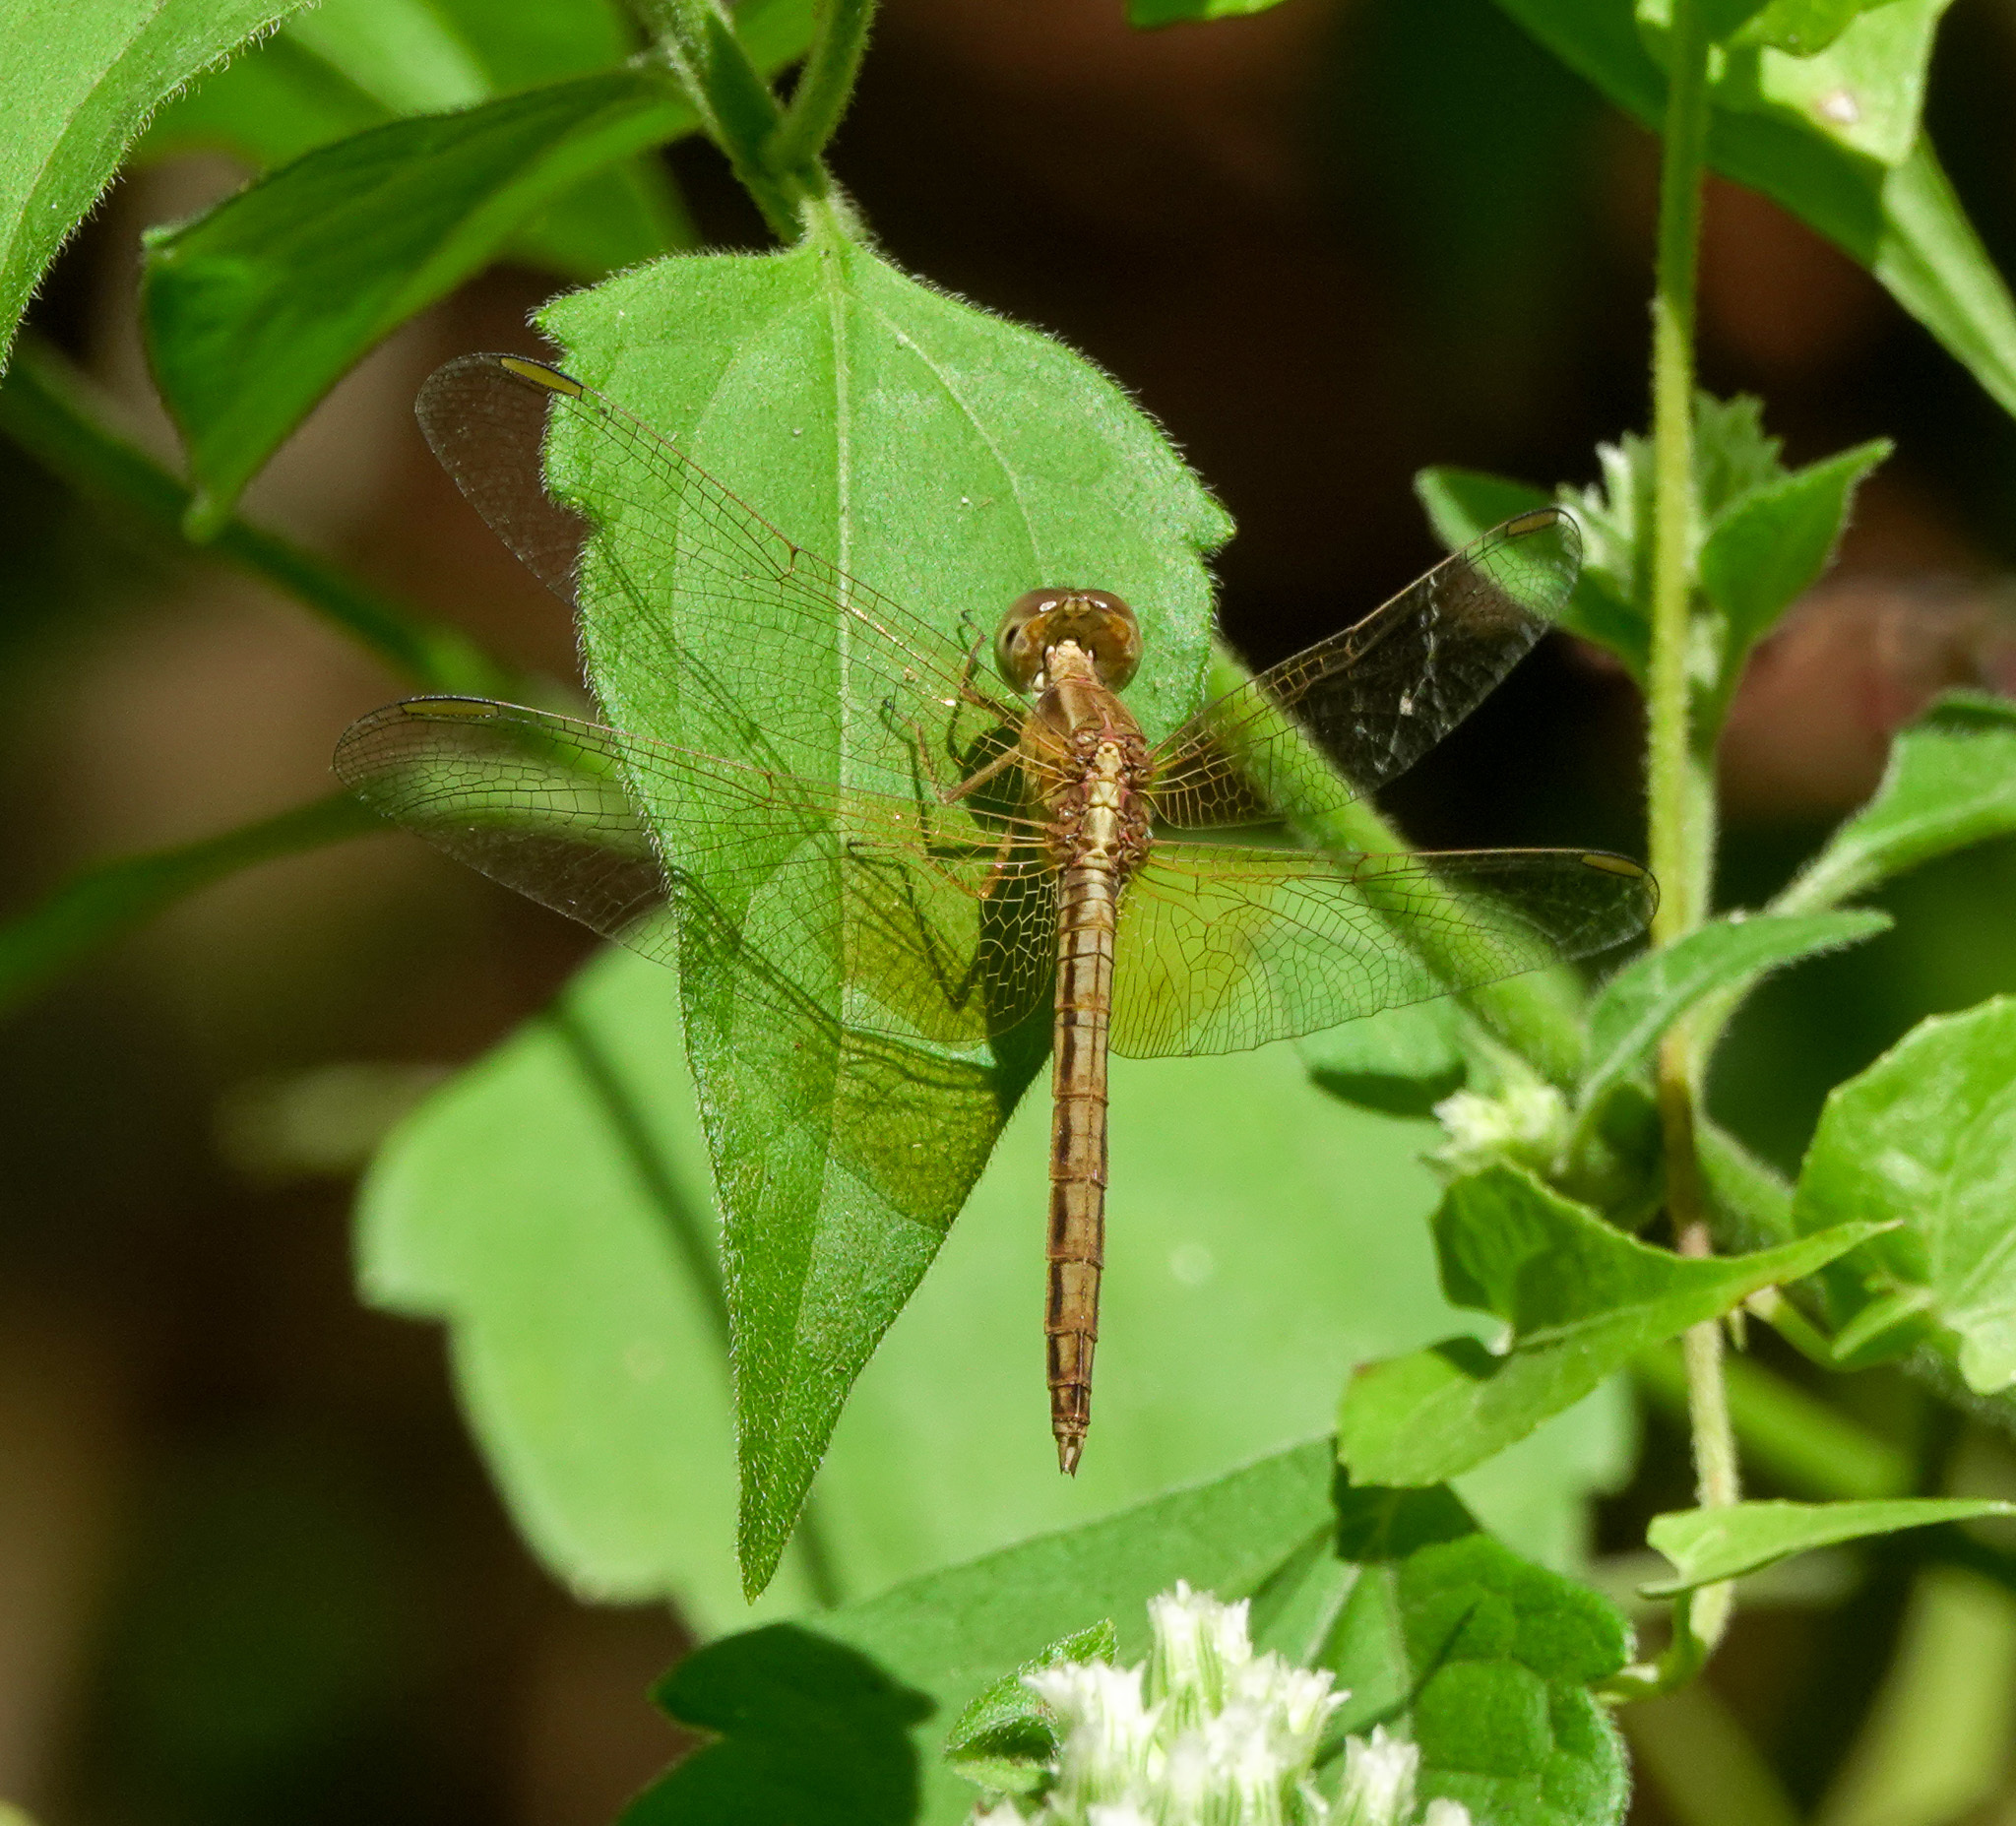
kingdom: Animalia
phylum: Arthropoda
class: Insecta
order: Odonata
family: Libellulidae
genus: Neurothemis
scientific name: Neurothemis intermedia
